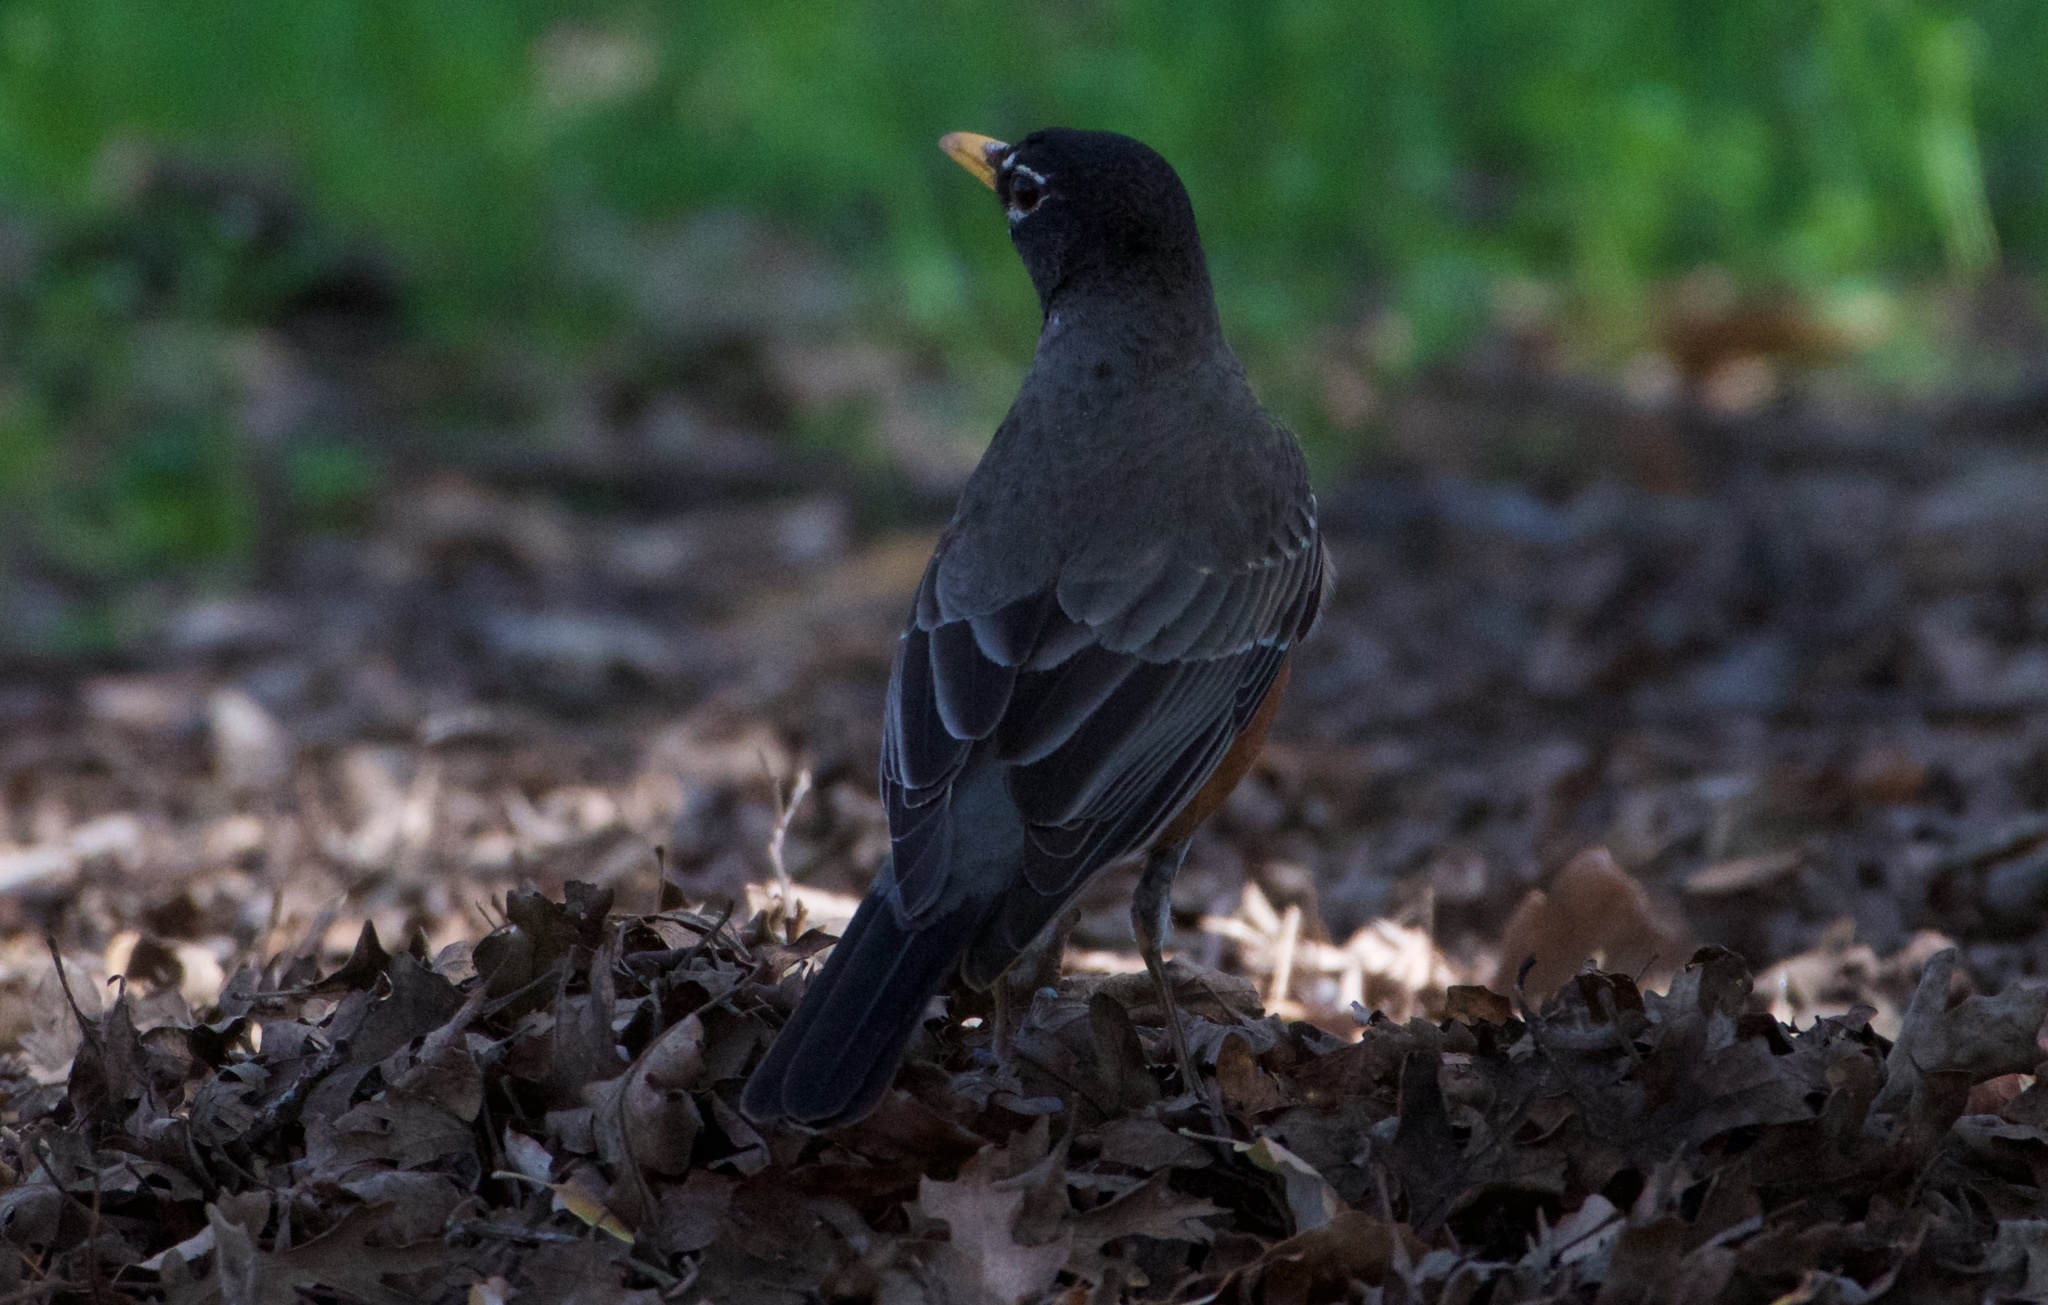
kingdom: Animalia
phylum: Chordata
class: Aves
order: Passeriformes
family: Turdidae
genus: Turdus
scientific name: Turdus migratorius
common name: American robin
